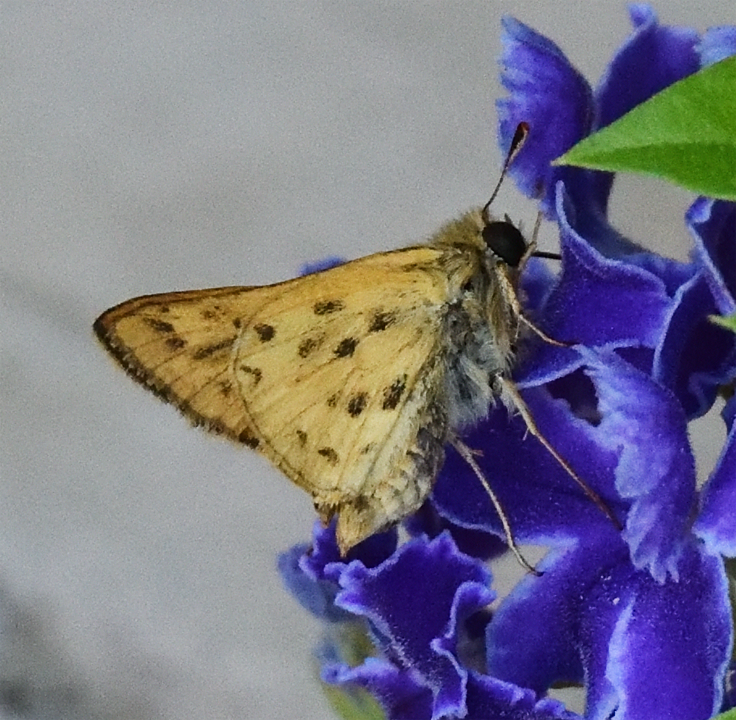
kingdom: Animalia
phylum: Arthropoda
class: Insecta
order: Lepidoptera
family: Hesperiidae
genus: Hylephila
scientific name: Hylephila phyleus
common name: Fiery skipper
